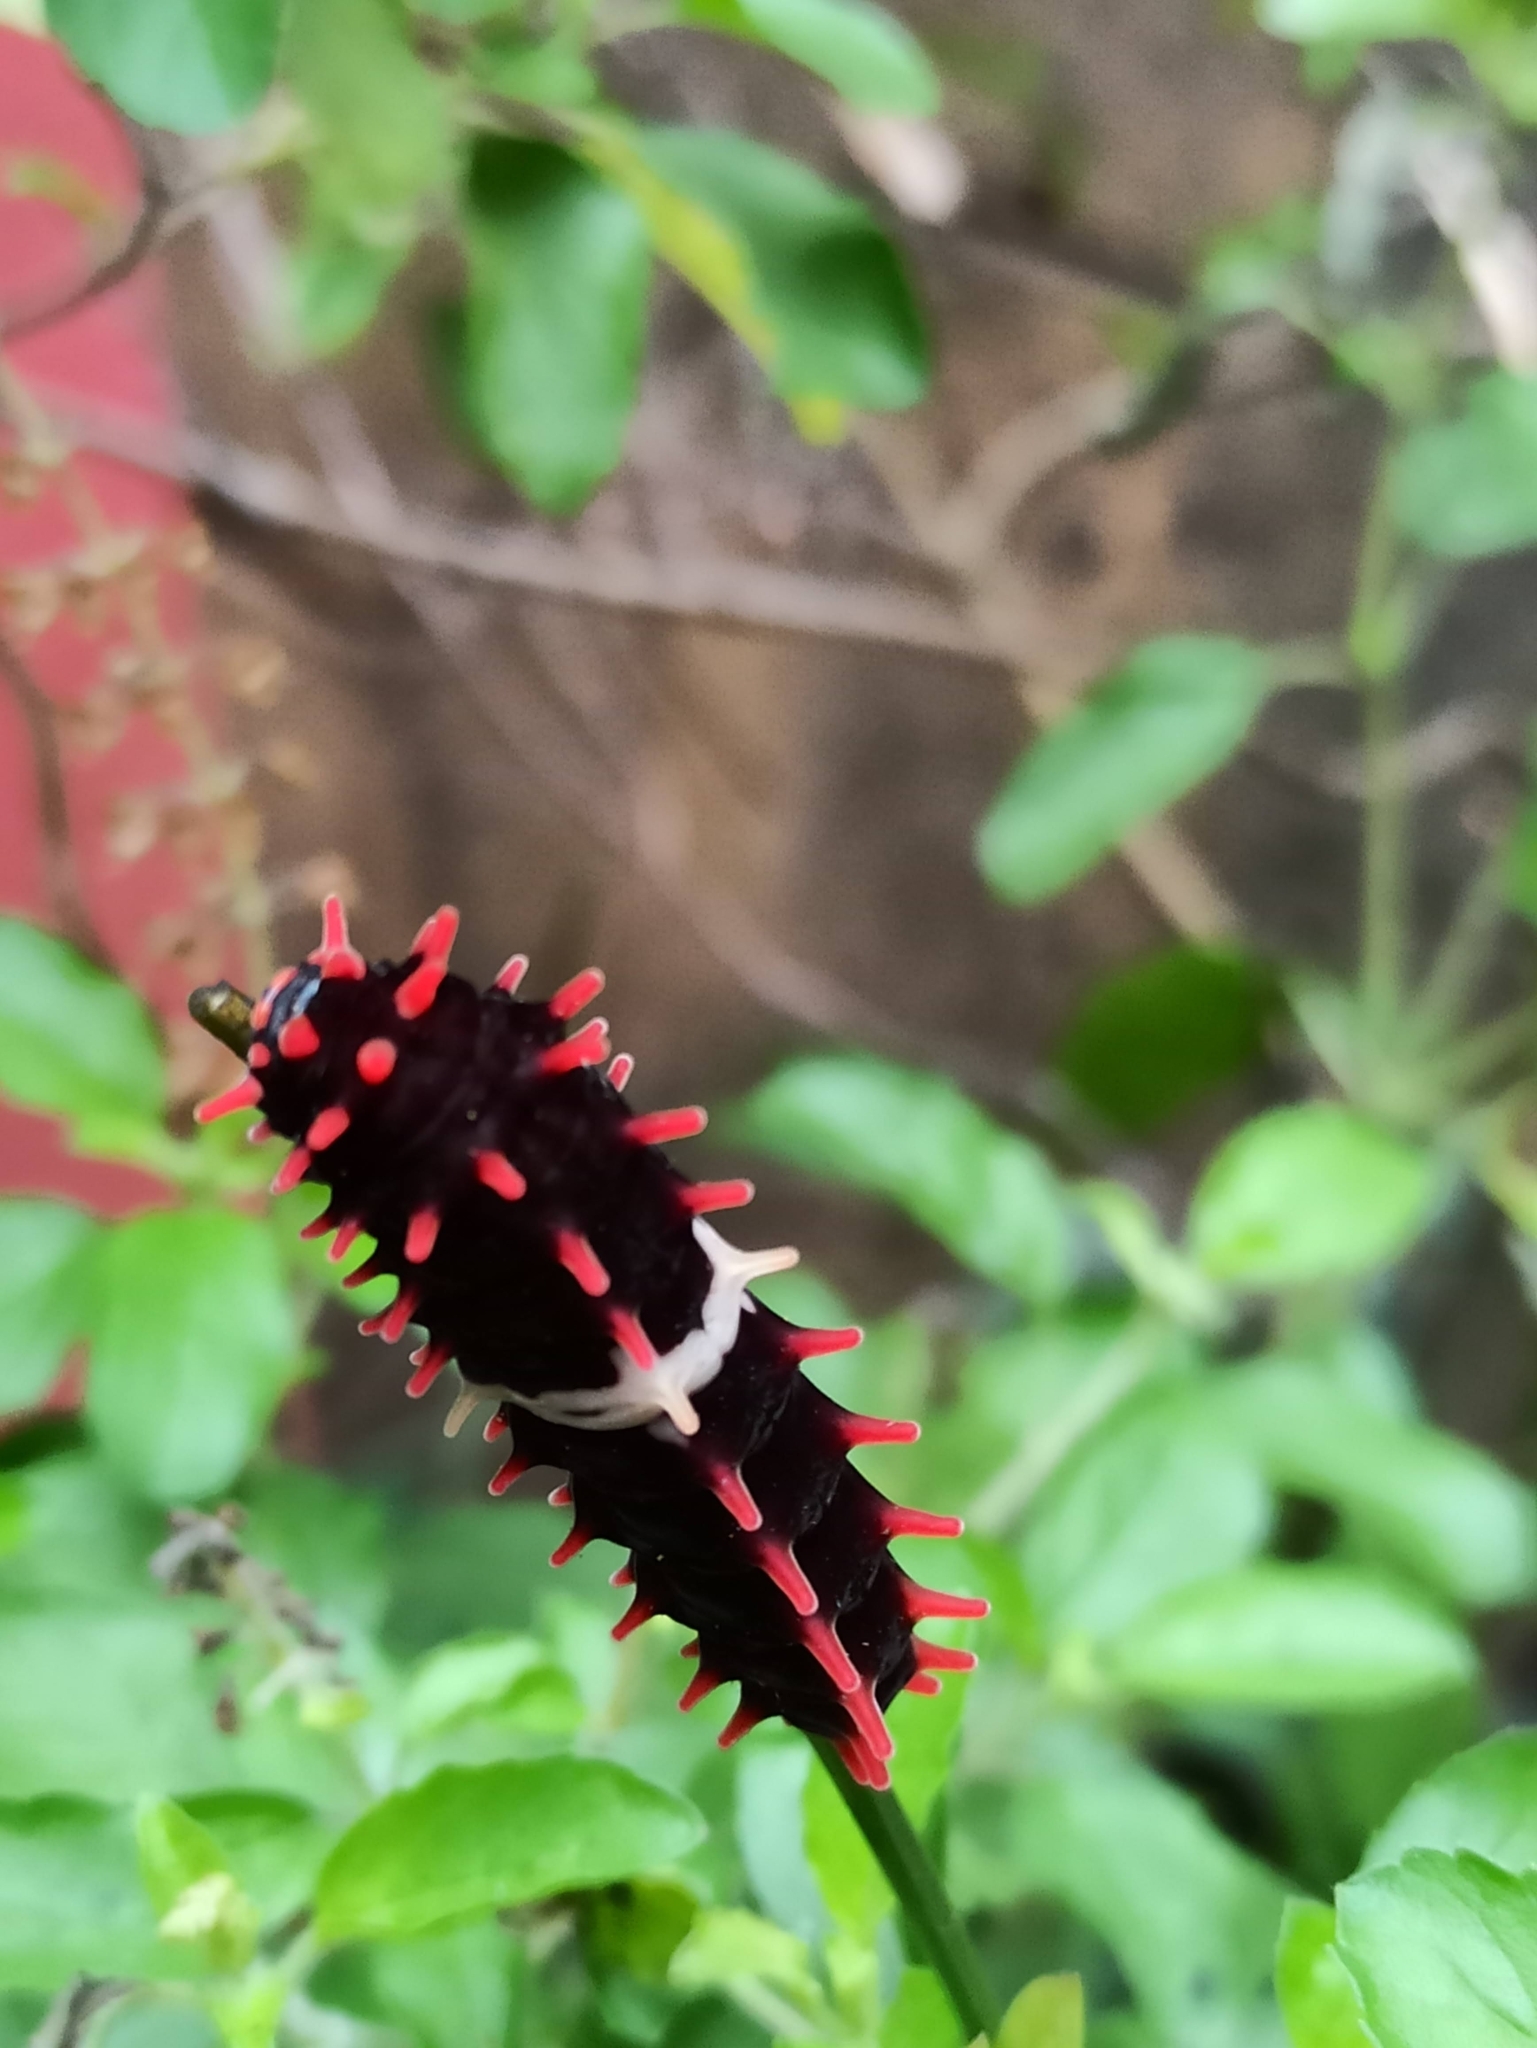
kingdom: Animalia
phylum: Arthropoda
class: Insecta
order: Lepidoptera
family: Papilionidae
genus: Pachliopta
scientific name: Pachliopta aristolochiae
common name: Common rose
